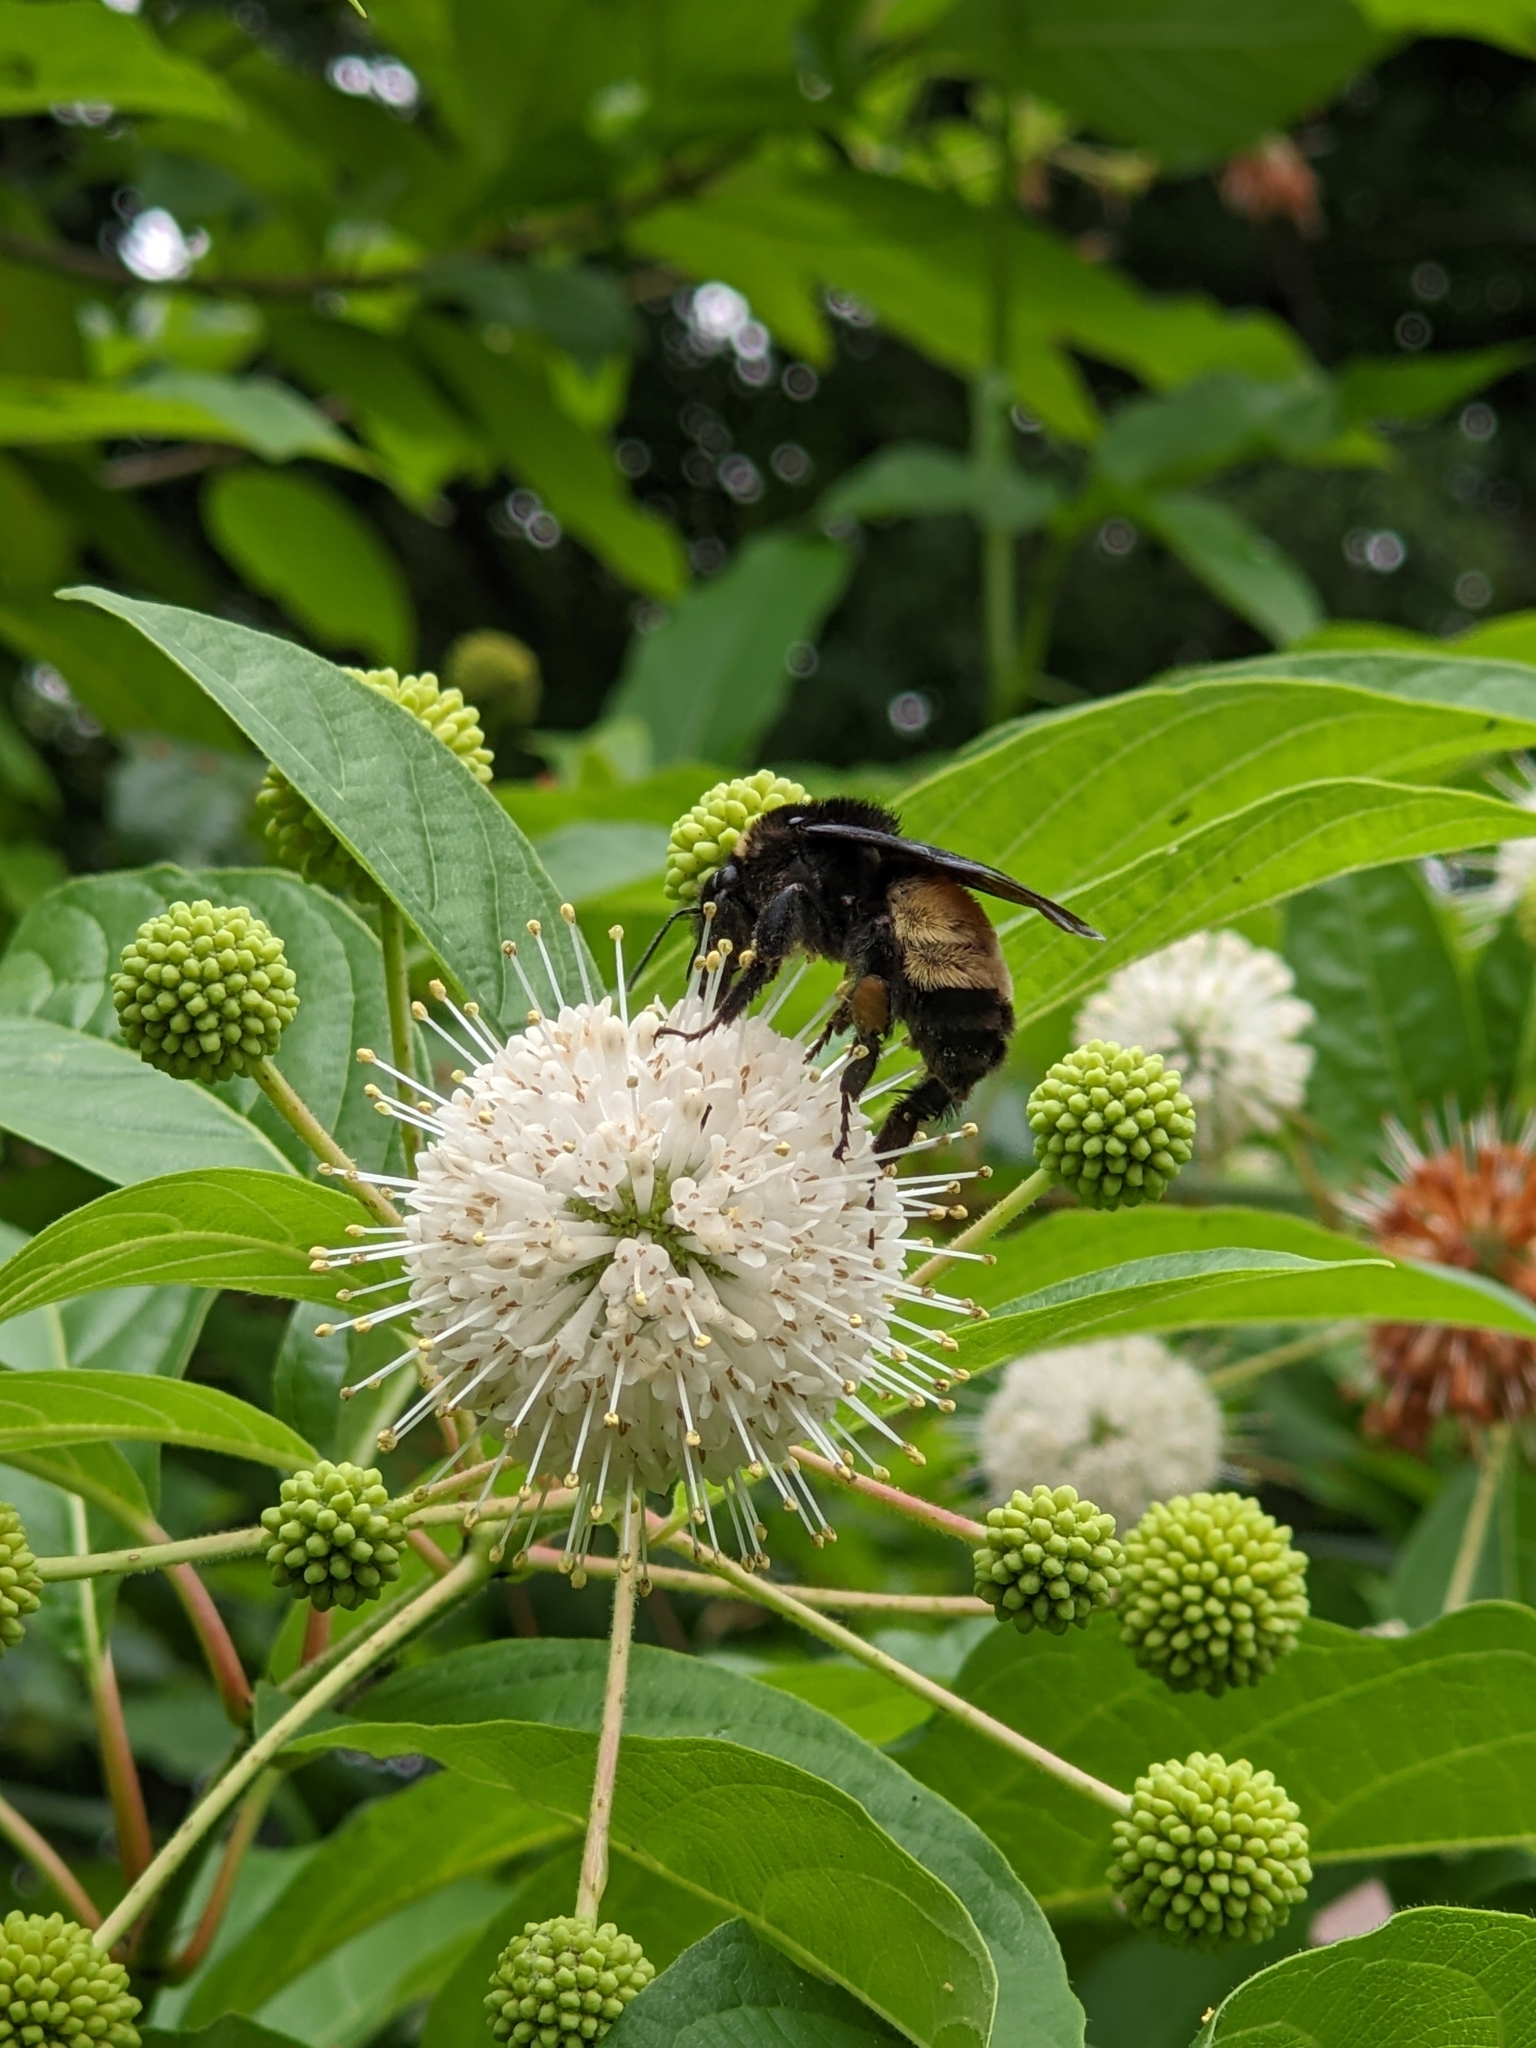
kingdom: Animalia
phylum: Arthropoda
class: Insecta
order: Hymenoptera
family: Apidae
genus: Bombus
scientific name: Bombus pensylvanicus
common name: Bumble bee
